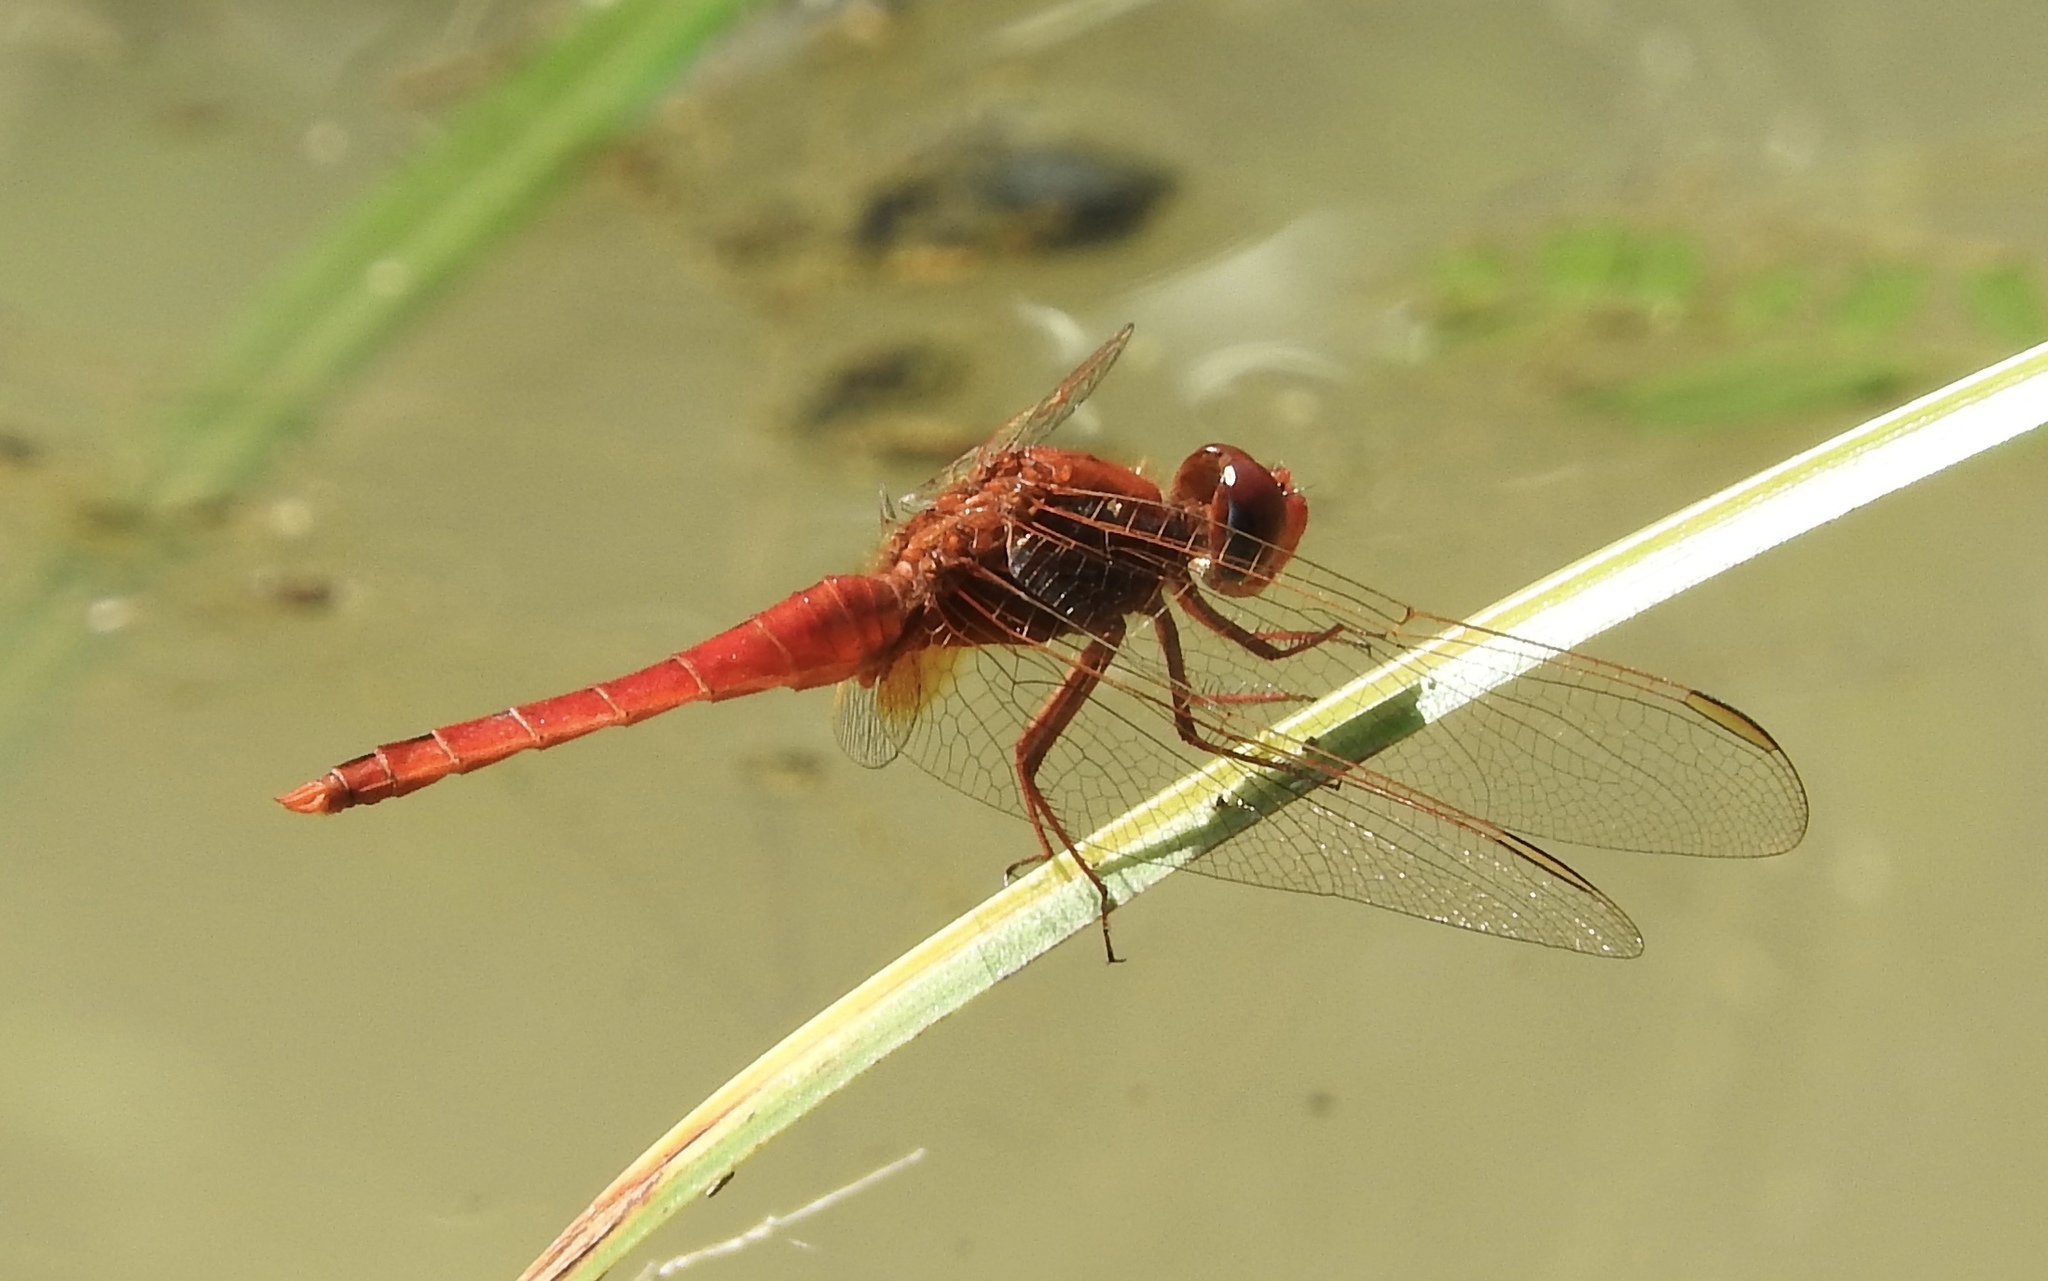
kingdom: Animalia
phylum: Arthropoda
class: Insecta
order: Odonata
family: Libellulidae
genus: Crocothemis
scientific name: Crocothemis erythraea
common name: Scarlet dragonfly
